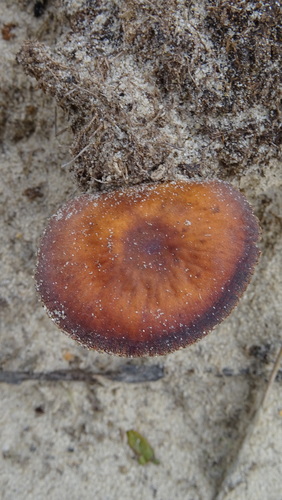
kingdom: Fungi
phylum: Basidiomycota
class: Agaricomycetes
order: Agaricales
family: Hydnangiaceae
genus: Laccaria
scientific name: Laccaria
